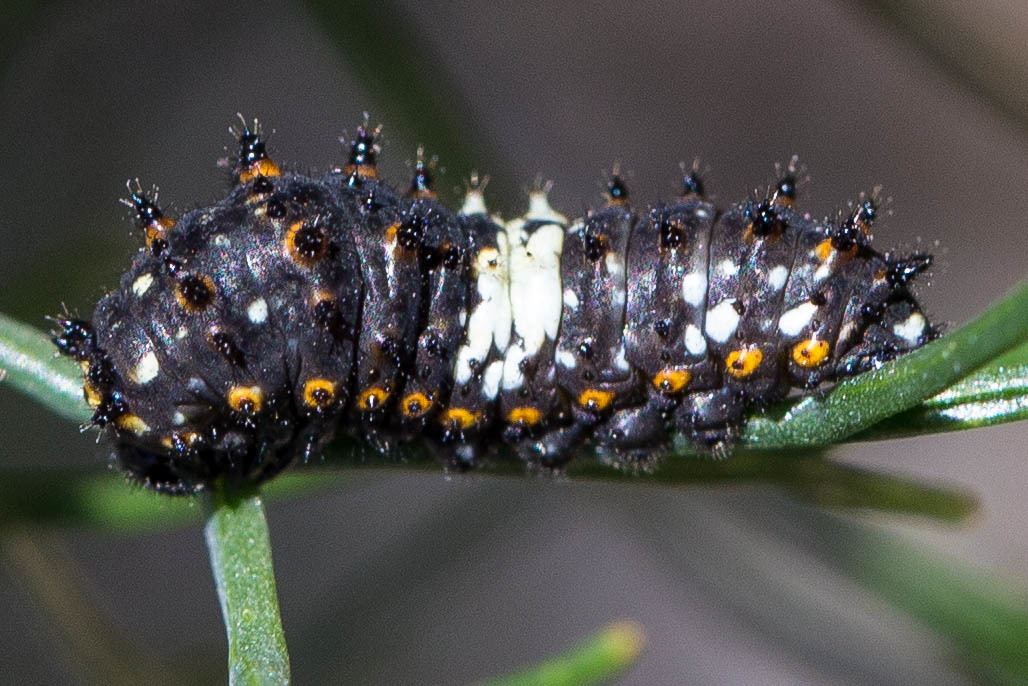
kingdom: Animalia
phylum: Arthropoda
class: Insecta
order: Lepidoptera
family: Papilionidae
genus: Papilio
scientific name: Papilio zelicaon
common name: Anise swallowtail
